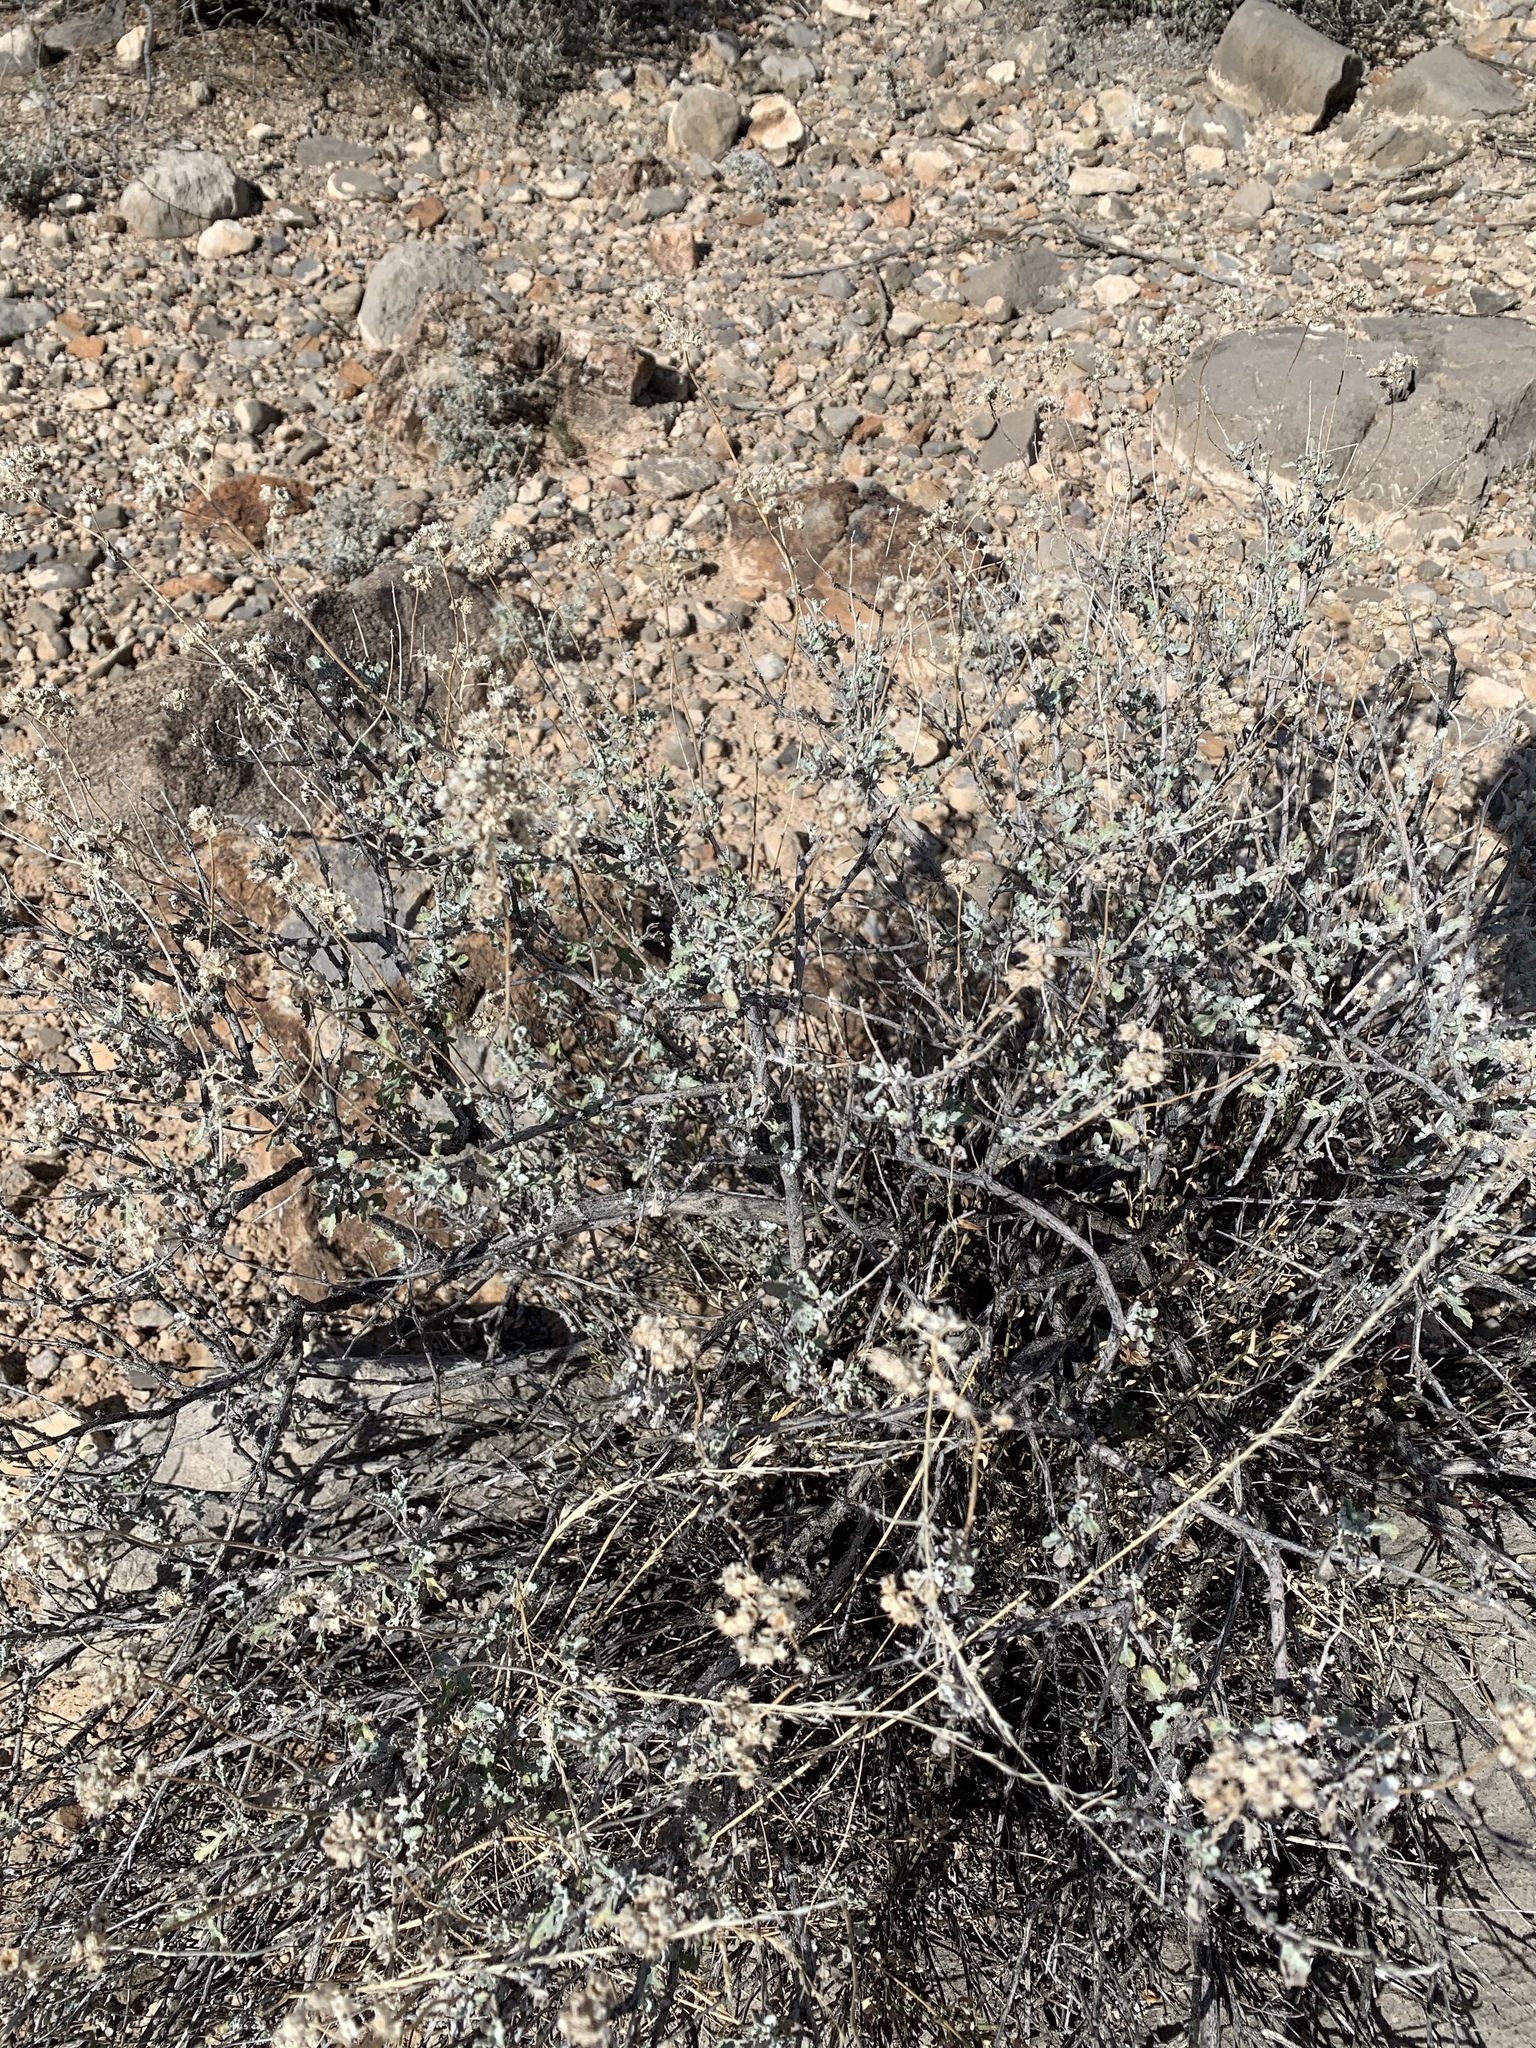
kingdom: Plantae
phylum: Tracheophyta
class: Magnoliopsida
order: Asterales
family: Asteraceae
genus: Parthenium
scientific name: Parthenium incanum
